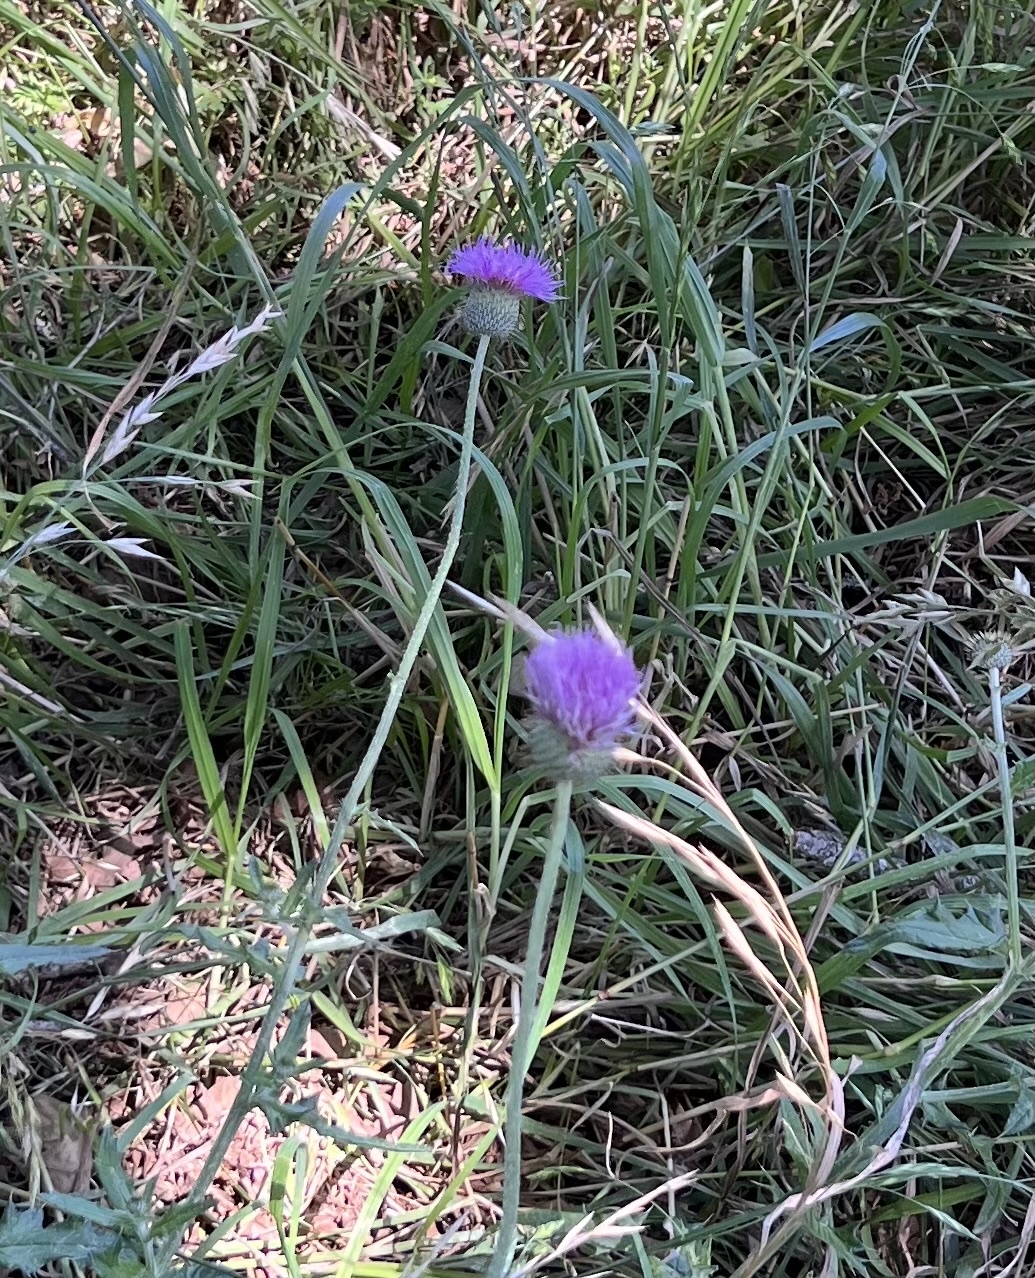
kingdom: Plantae
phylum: Tracheophyta
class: Magnoliopsida
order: Asterales
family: Asteraceae
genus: Cirsium
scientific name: Cirsium texanum
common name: Texas purple thistle
